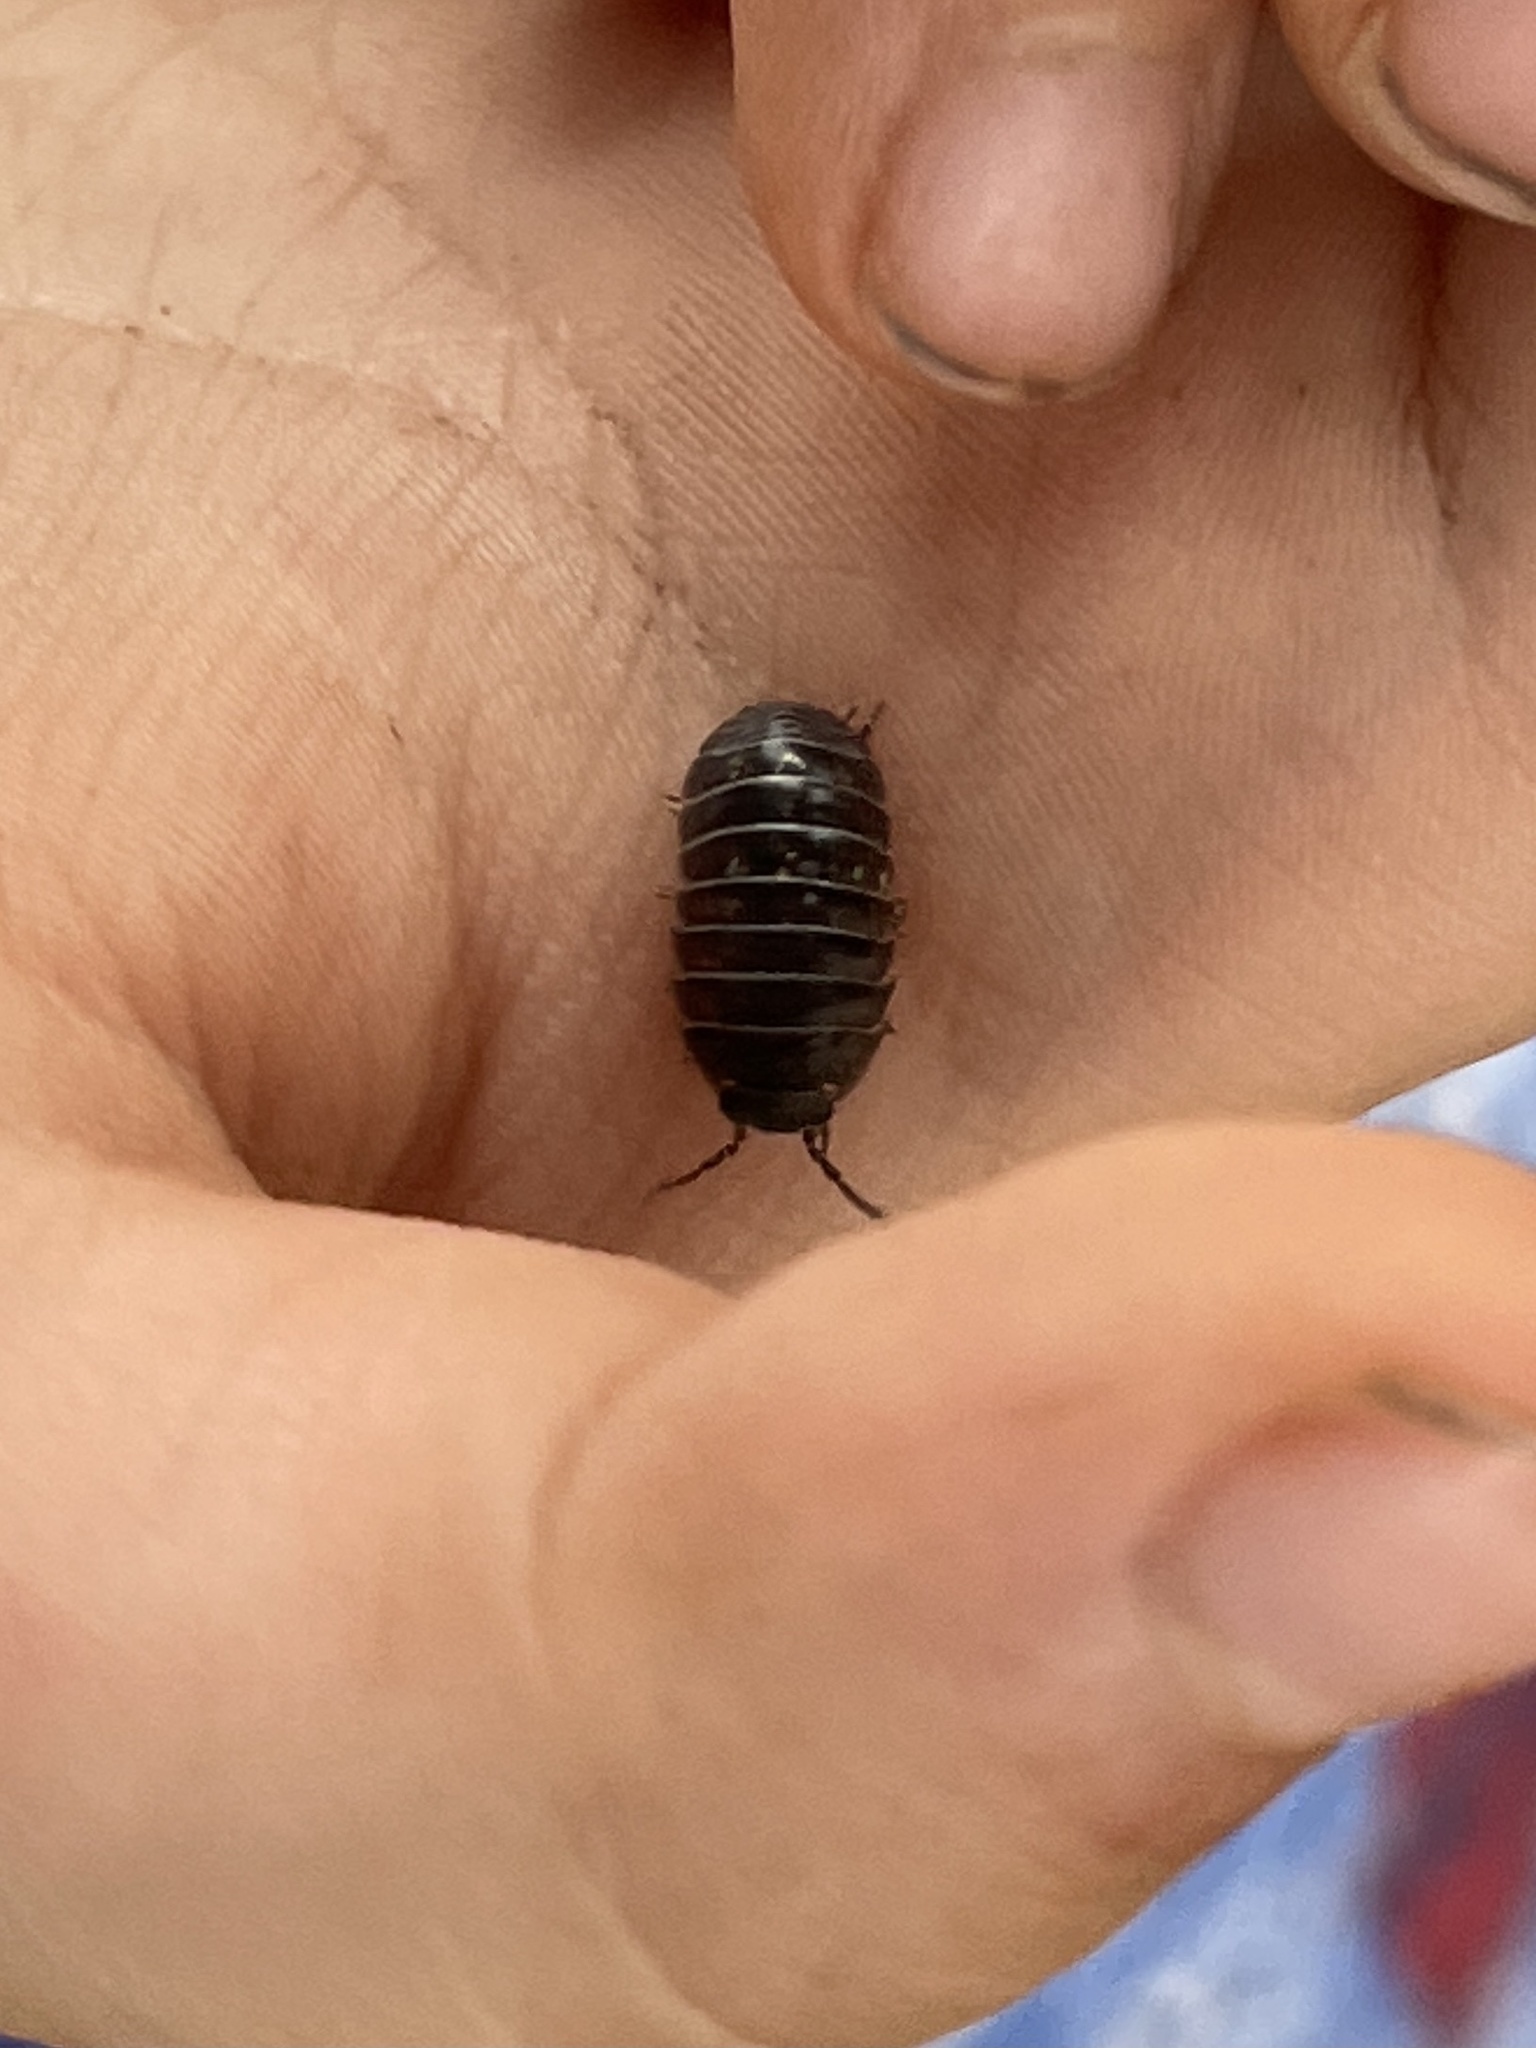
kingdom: Animalia
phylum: Arthropoda
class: Malacostraca
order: Isopoda
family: Armadillidiidae
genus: Armadillidium
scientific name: Armadillidium vulgare
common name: Common pill woodlouse
